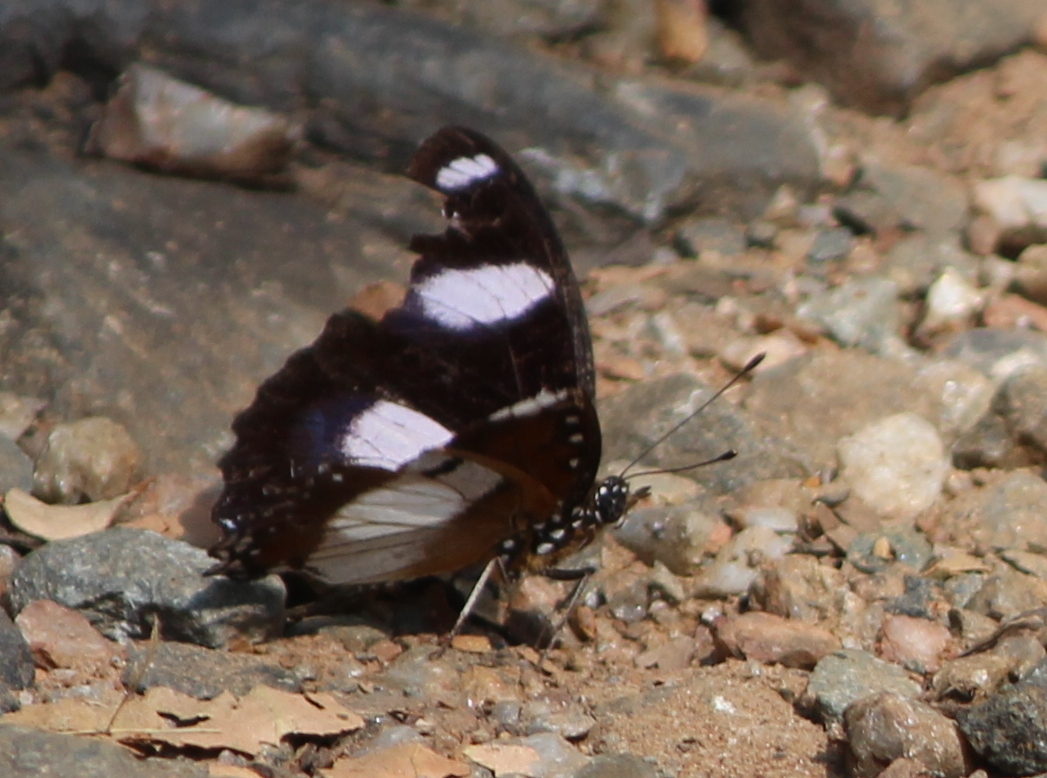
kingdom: Animalia
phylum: Arthropoda
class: Insecta
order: Lepidoptera
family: Nymphalidae
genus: Hypolimnas
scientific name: Hypolimnas misippus
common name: False plain tiger
